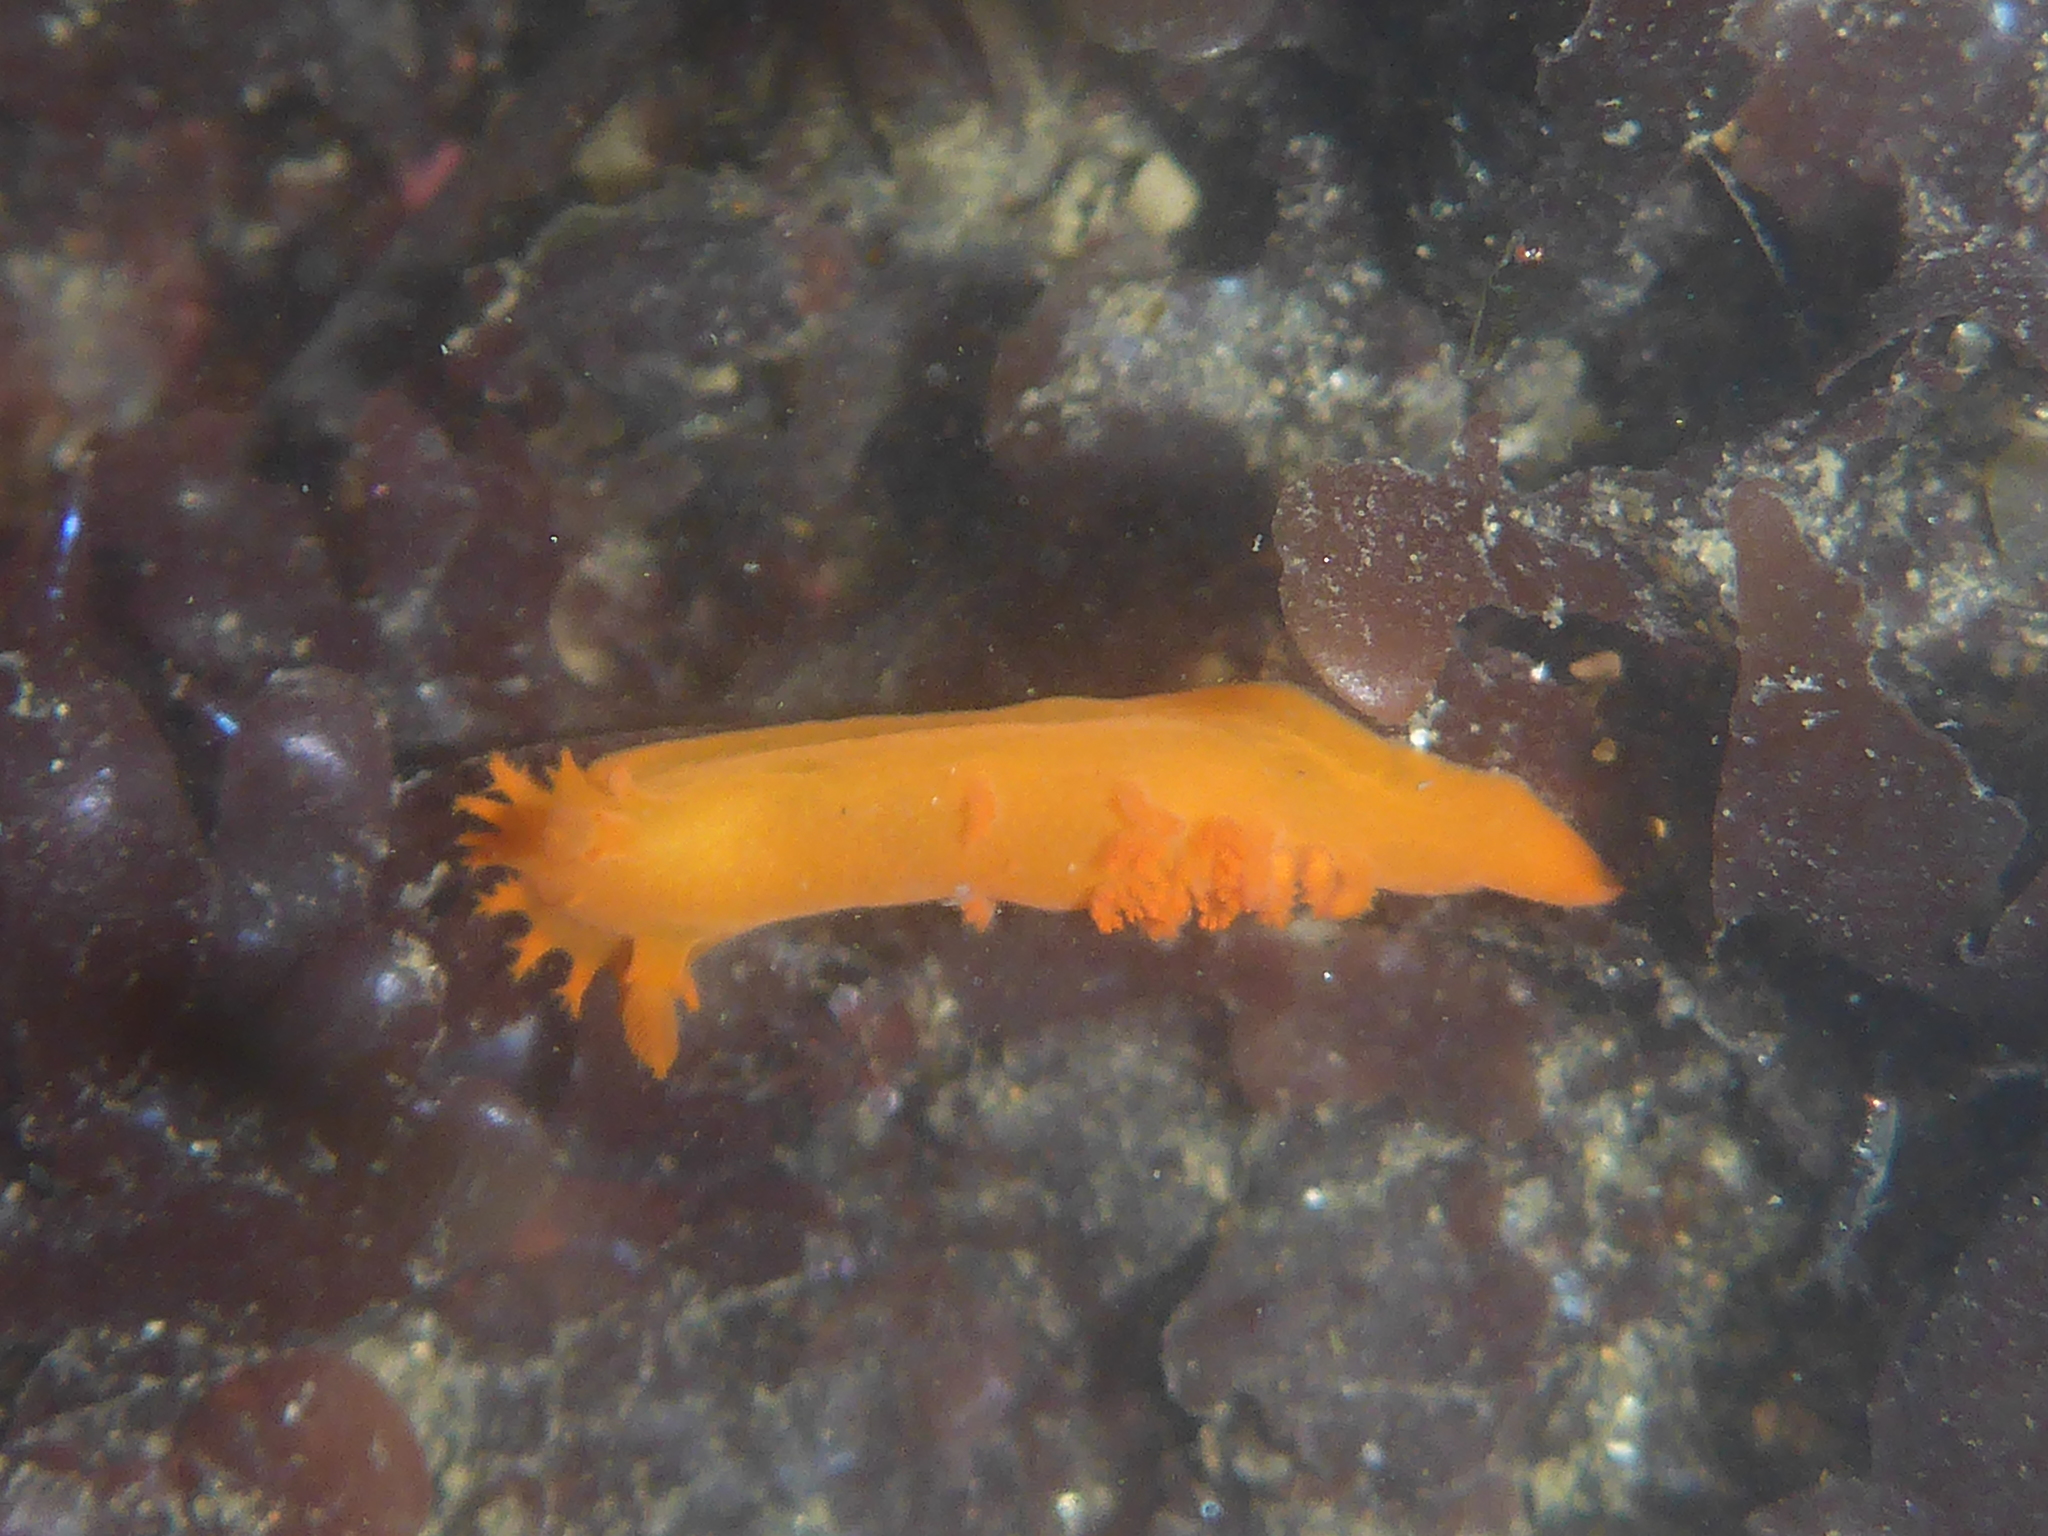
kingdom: Animalia
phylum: Mollusca
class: Gastropoda
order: Nudibranchia
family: Polyceridae
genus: Triopha
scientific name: Triopha maculata
